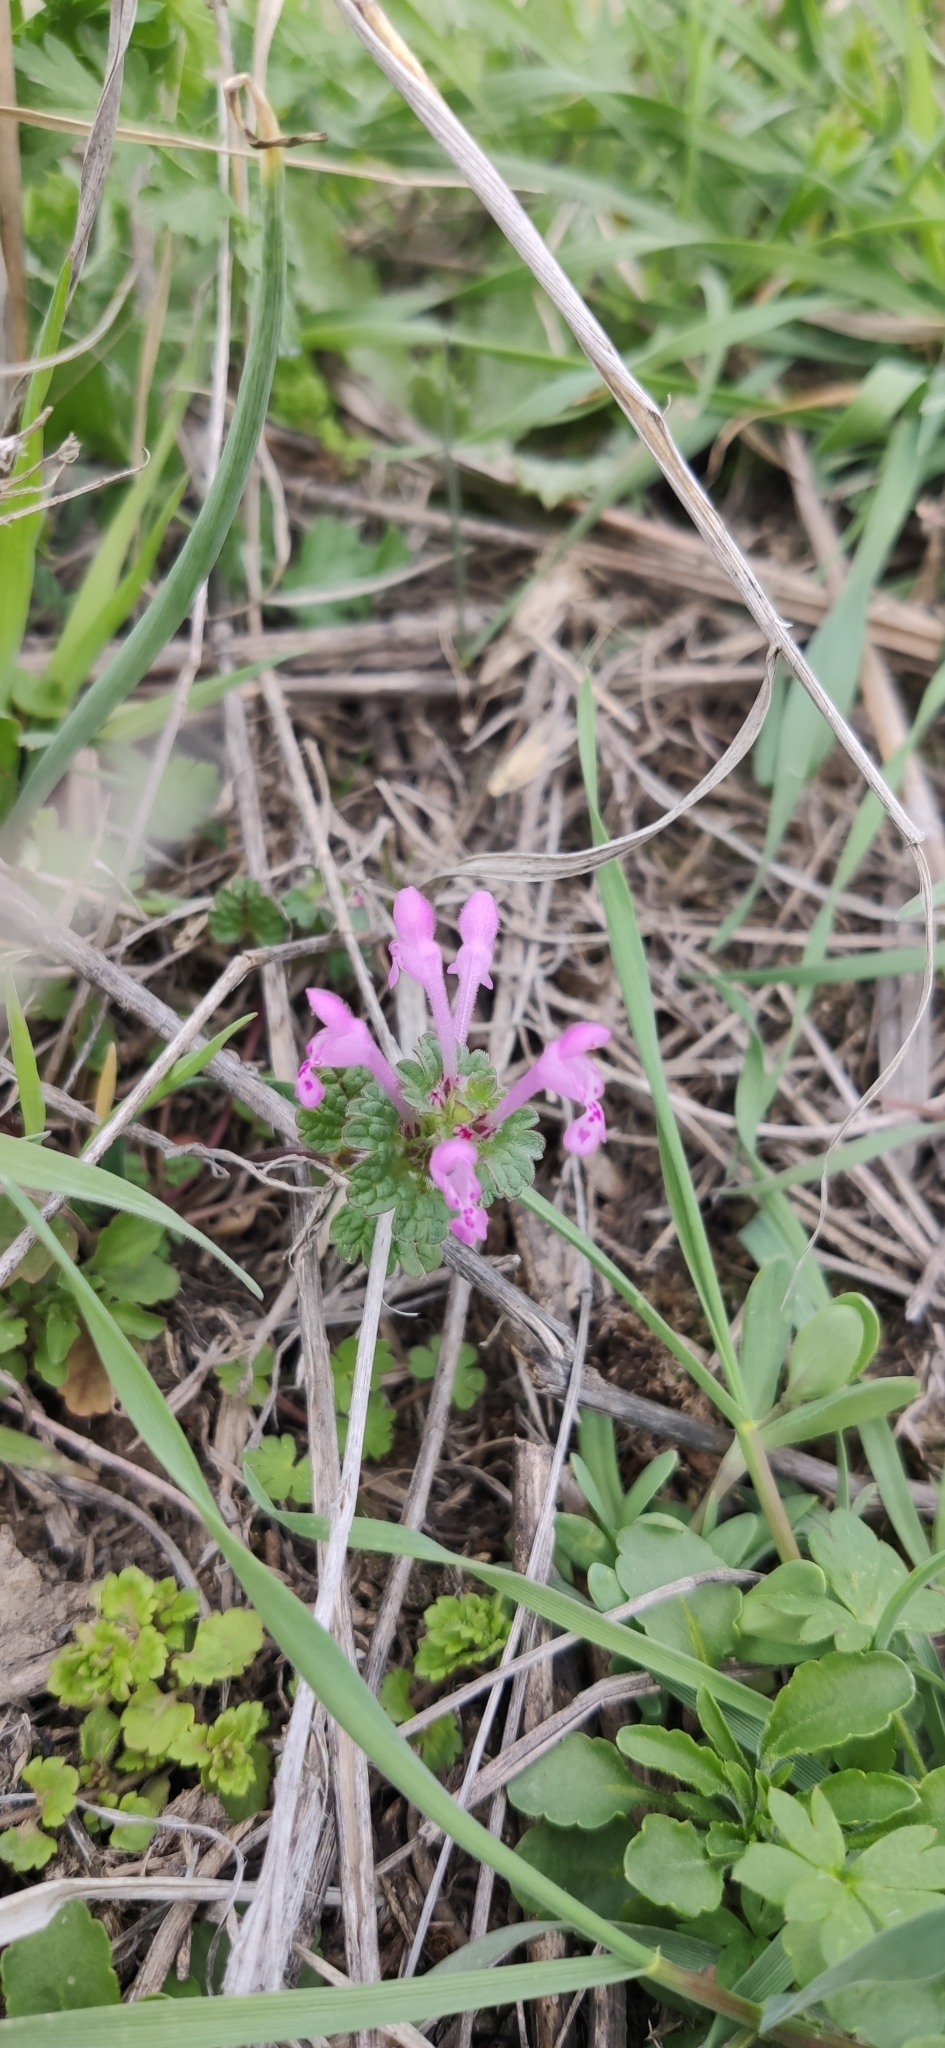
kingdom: Plantae
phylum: Tracheophyta
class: Magnoliopsida
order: Lamiales
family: Lamiaceae
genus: Lamium
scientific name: Lamium amplexicaule
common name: Henbit dead-nettle
